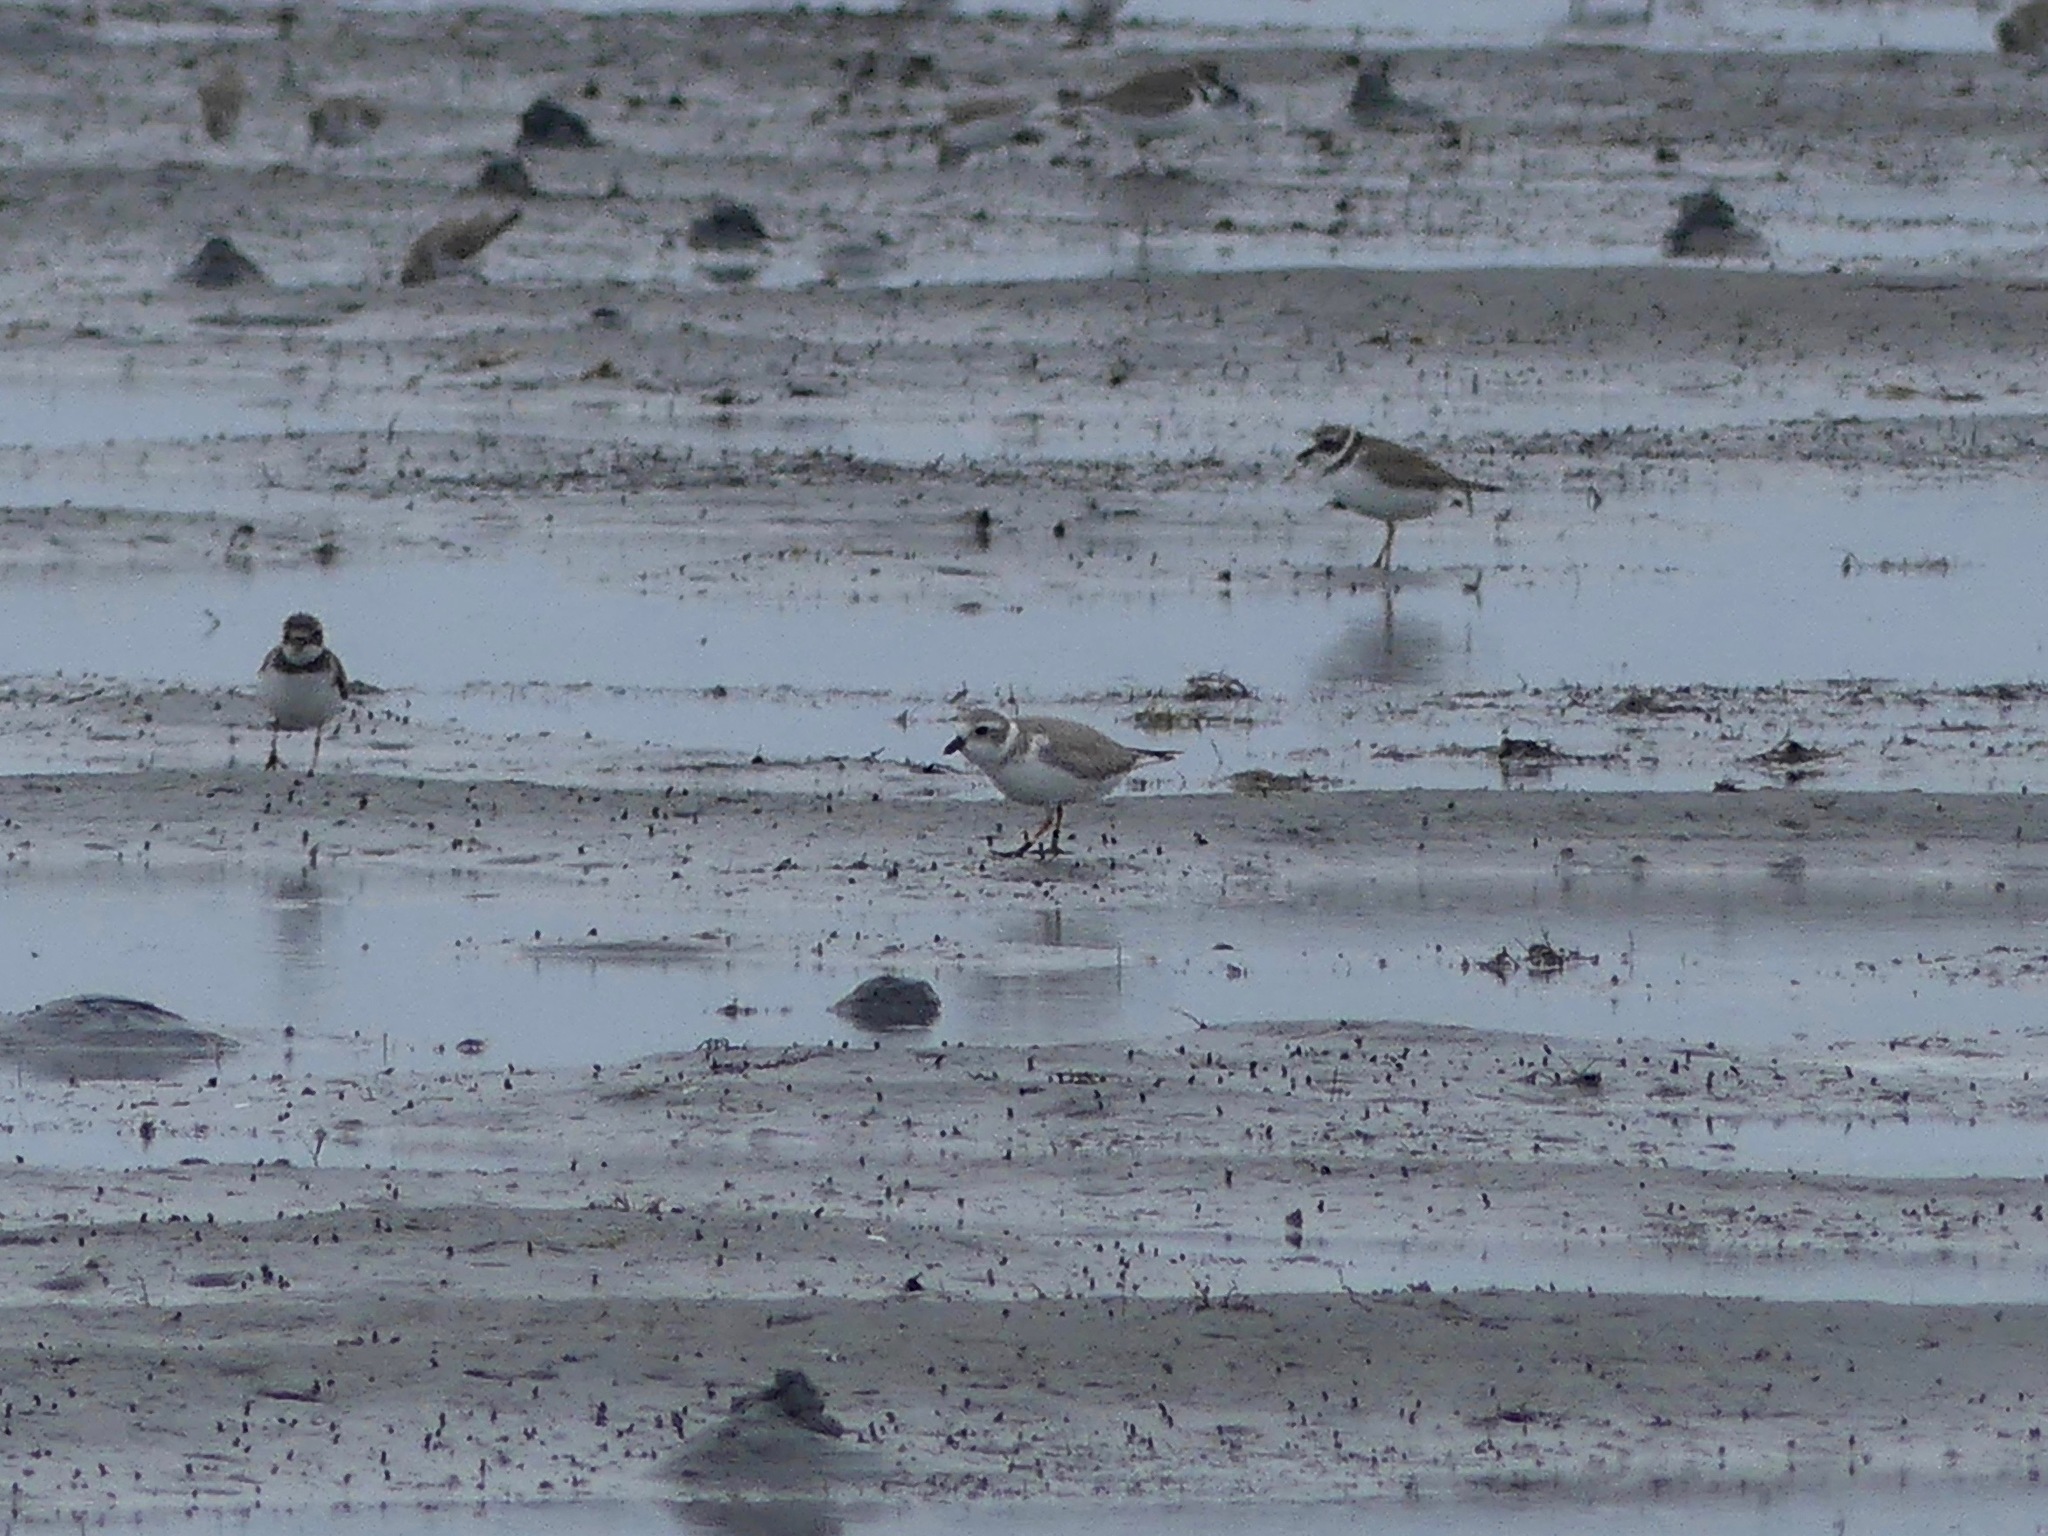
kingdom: Animalia
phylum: Chordata
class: Aves
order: Charadriiformes
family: Charadriidae
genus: Charadrius
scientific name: Charadrius melodus
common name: Piping plover
